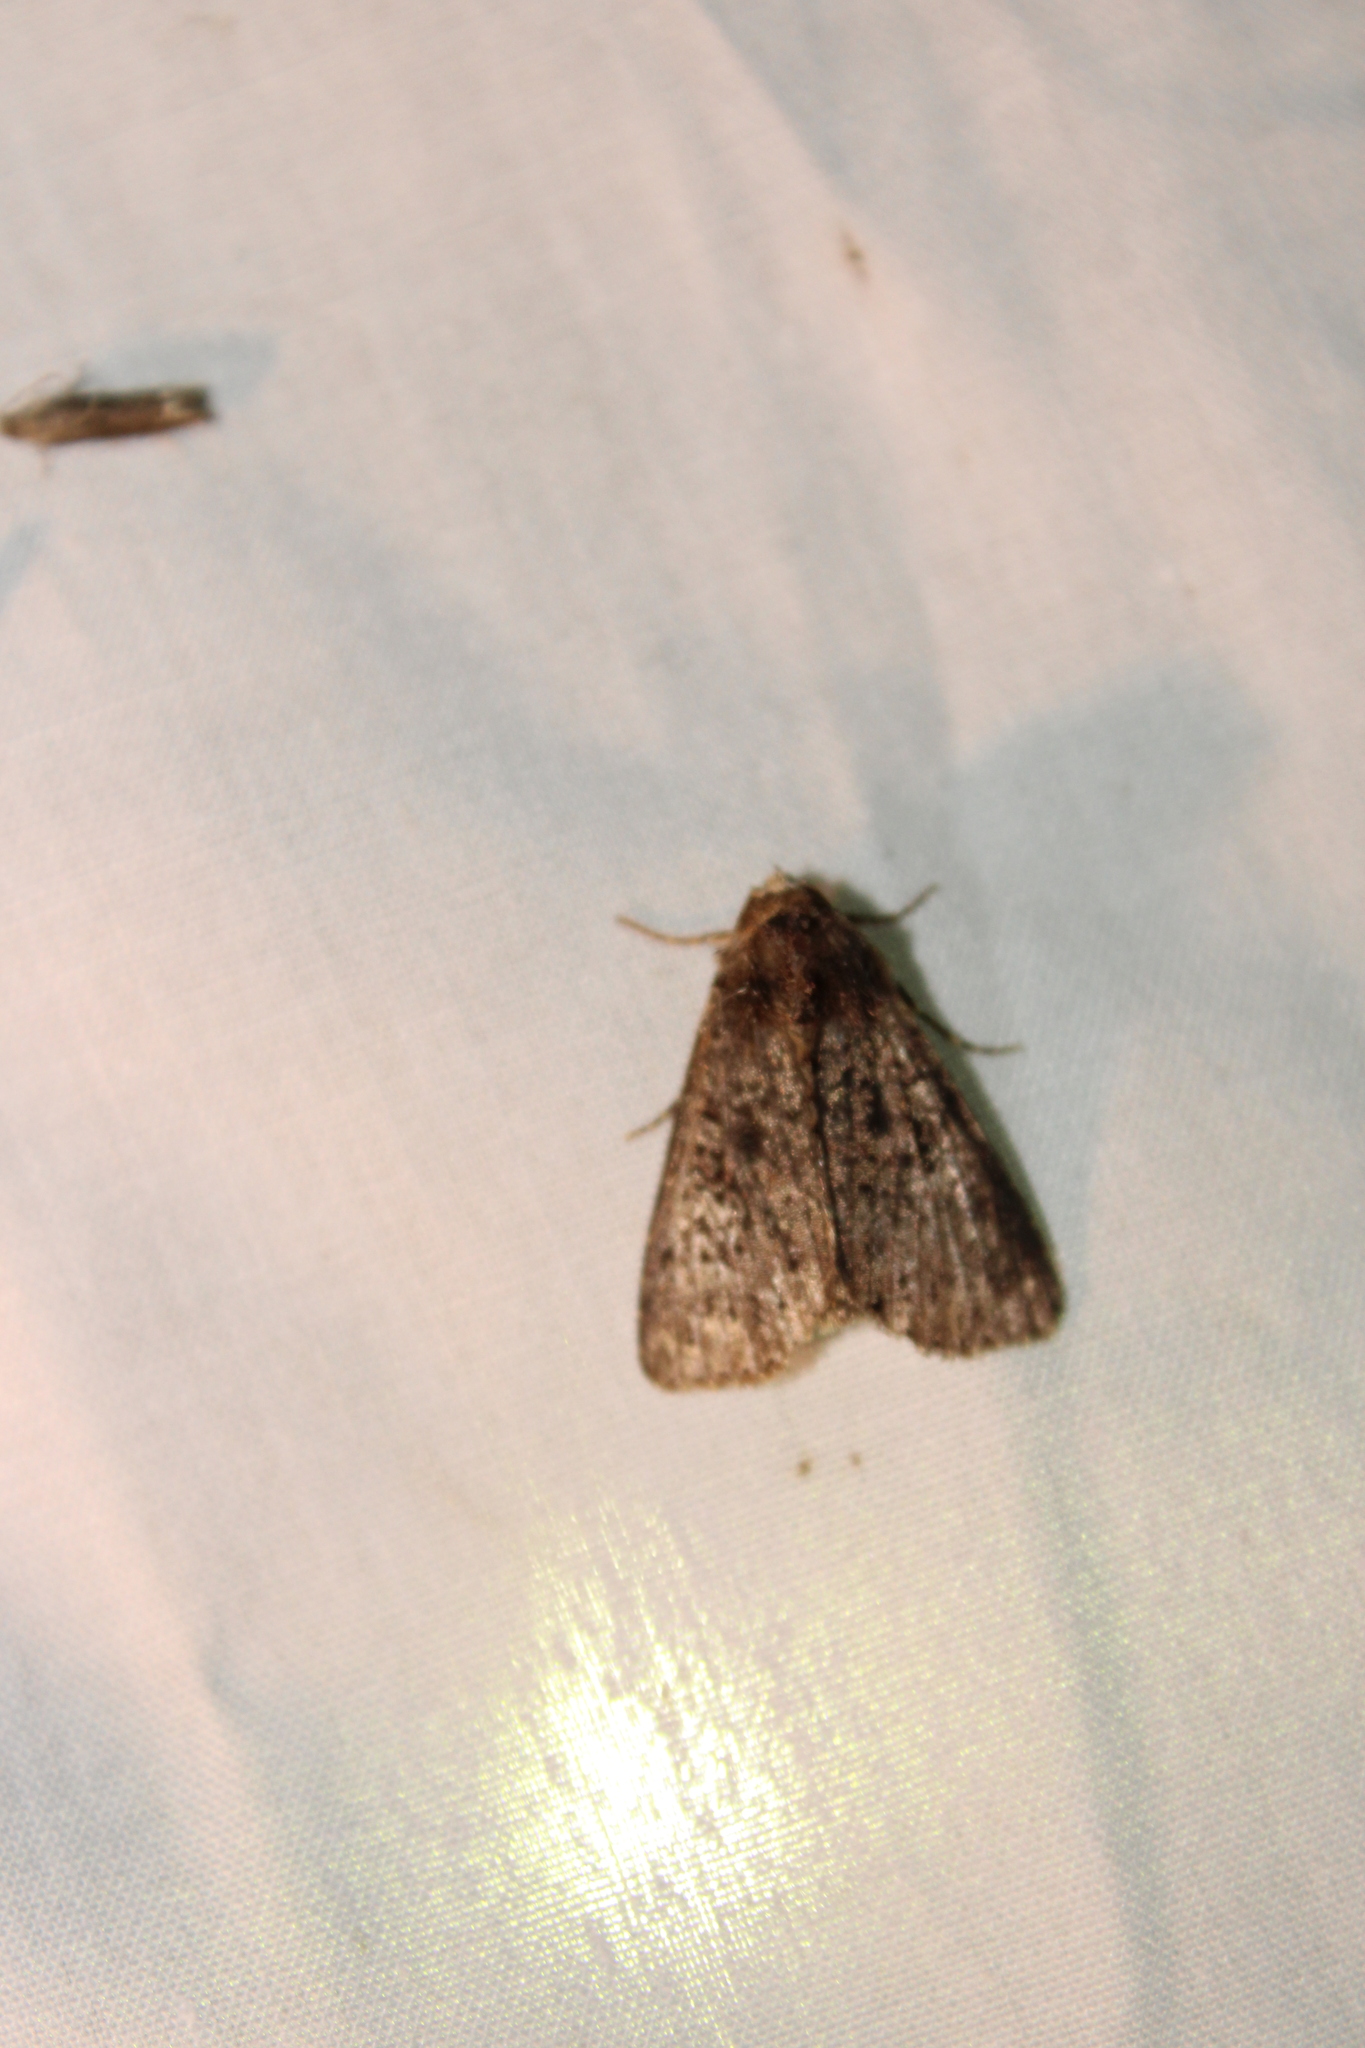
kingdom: Animalia
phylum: Arthropoda
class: Insecta
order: Lepidoptera
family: Noctuidae
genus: Condica
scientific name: Condica vecors
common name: Dusky groundling
